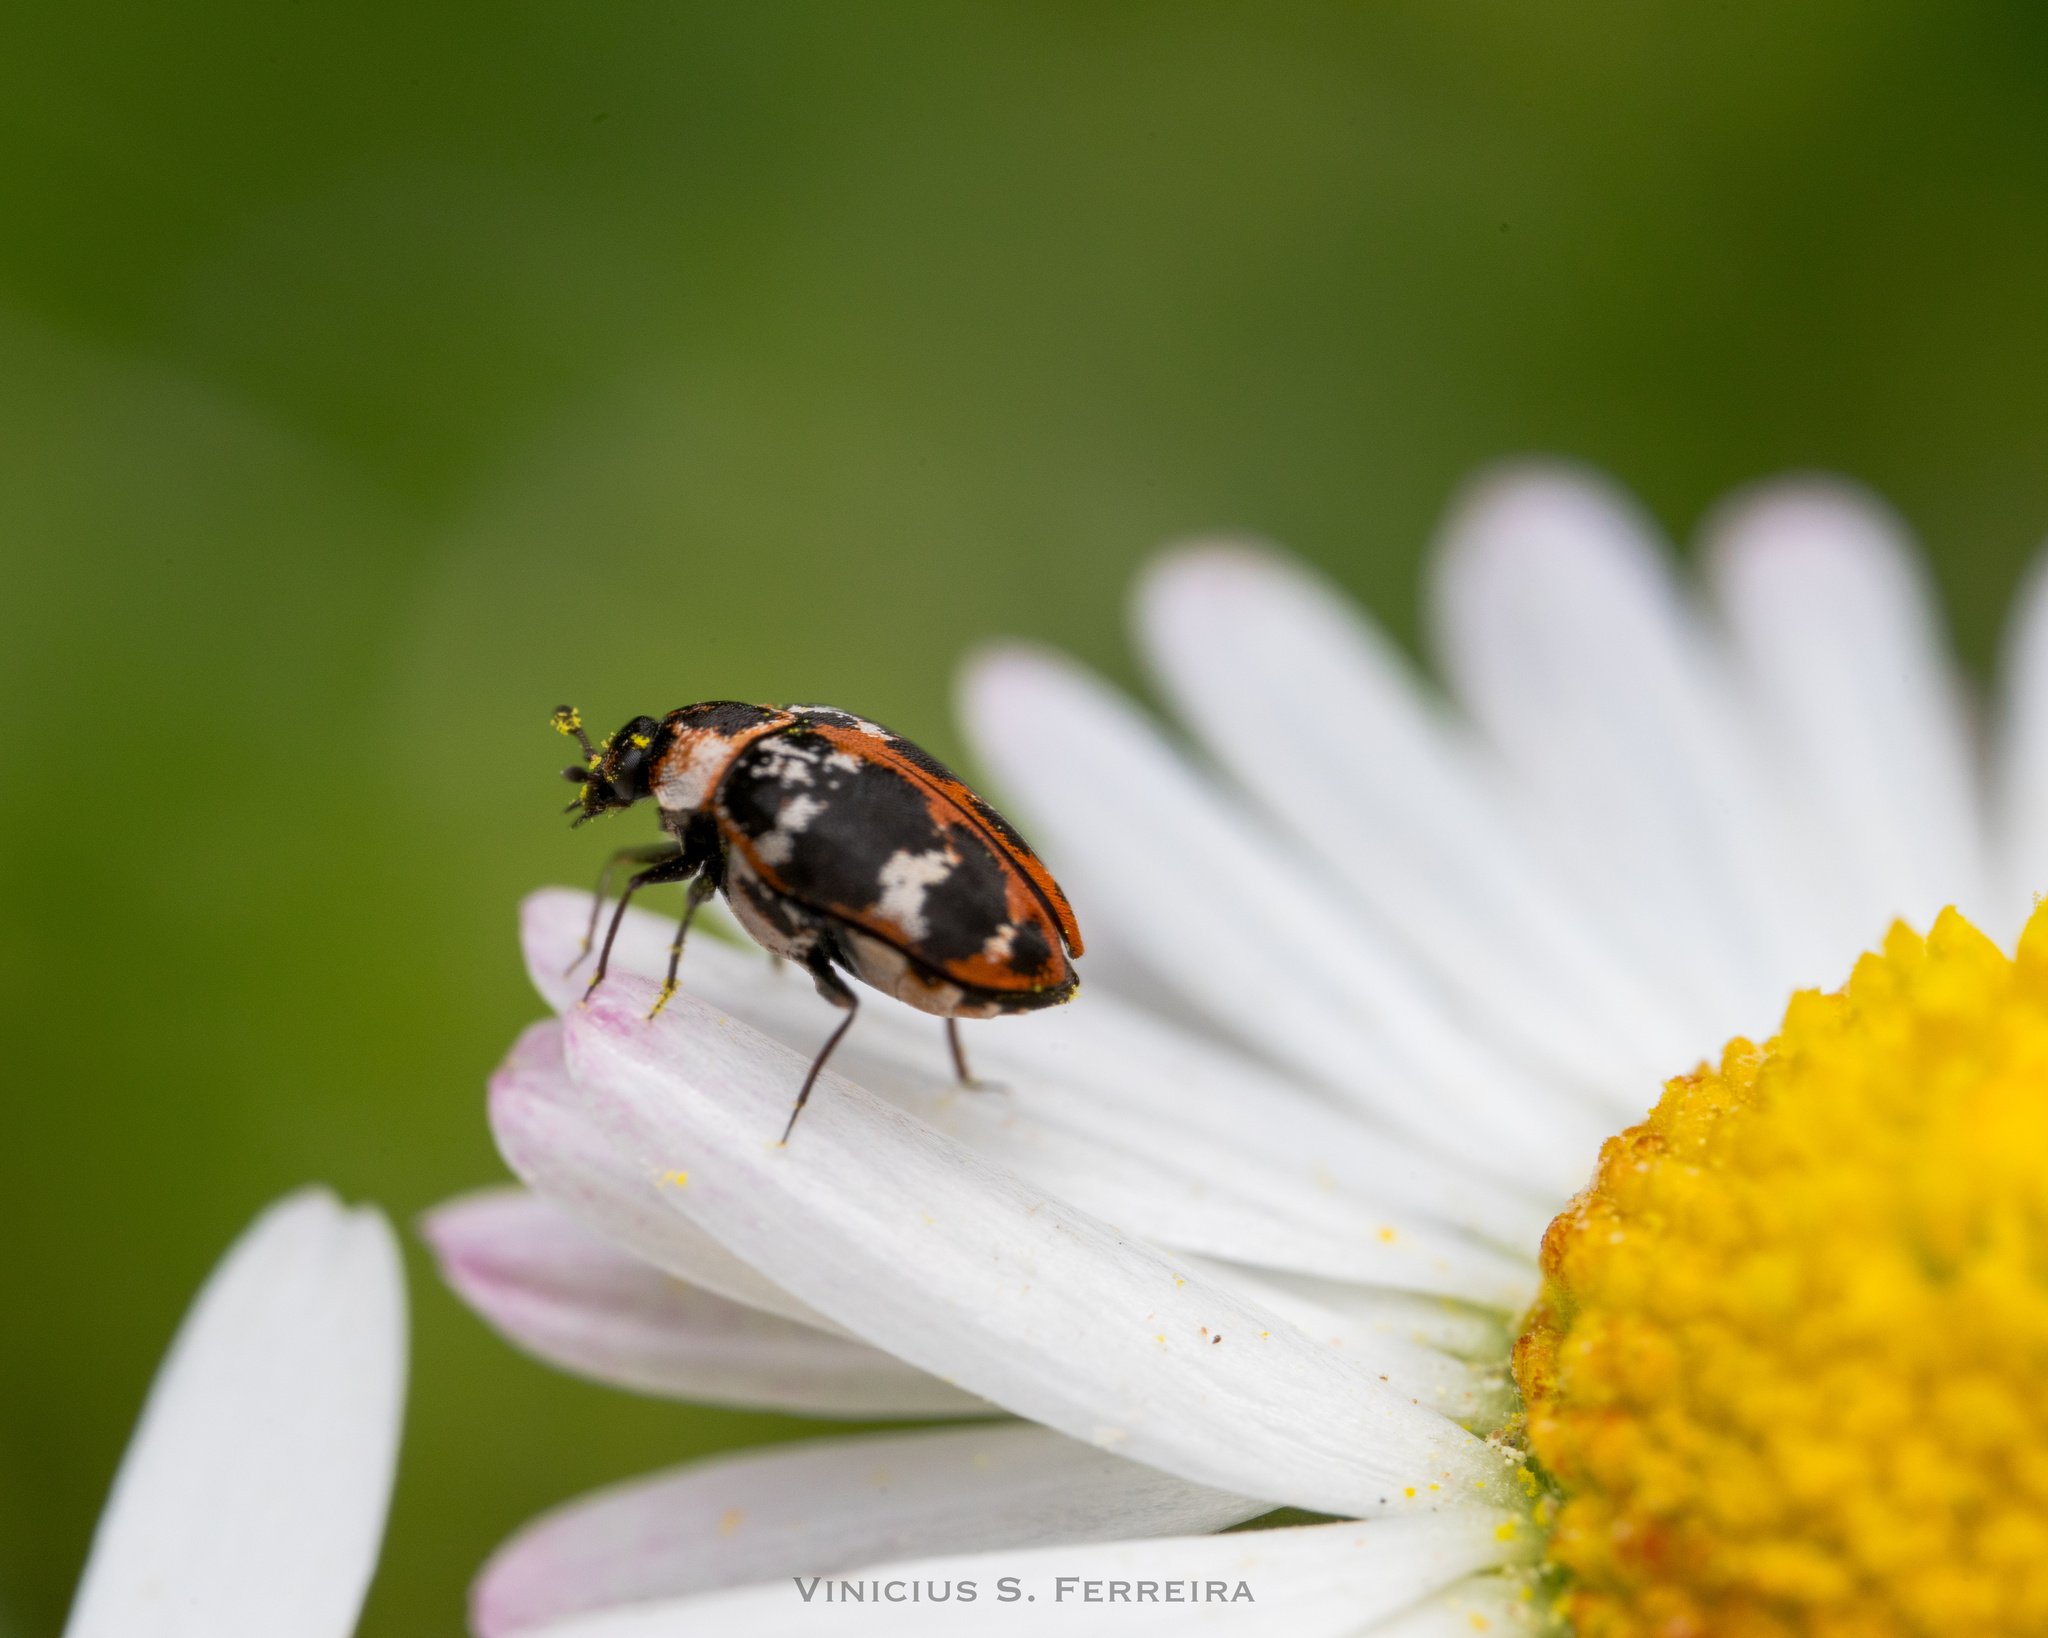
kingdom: Animalia
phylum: Arthropoda
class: Insecta
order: Coleoptera
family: Dermestidae
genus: Anthrenus
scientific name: Anthrenus scrophulariae
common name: Buffalo carpet beetle
